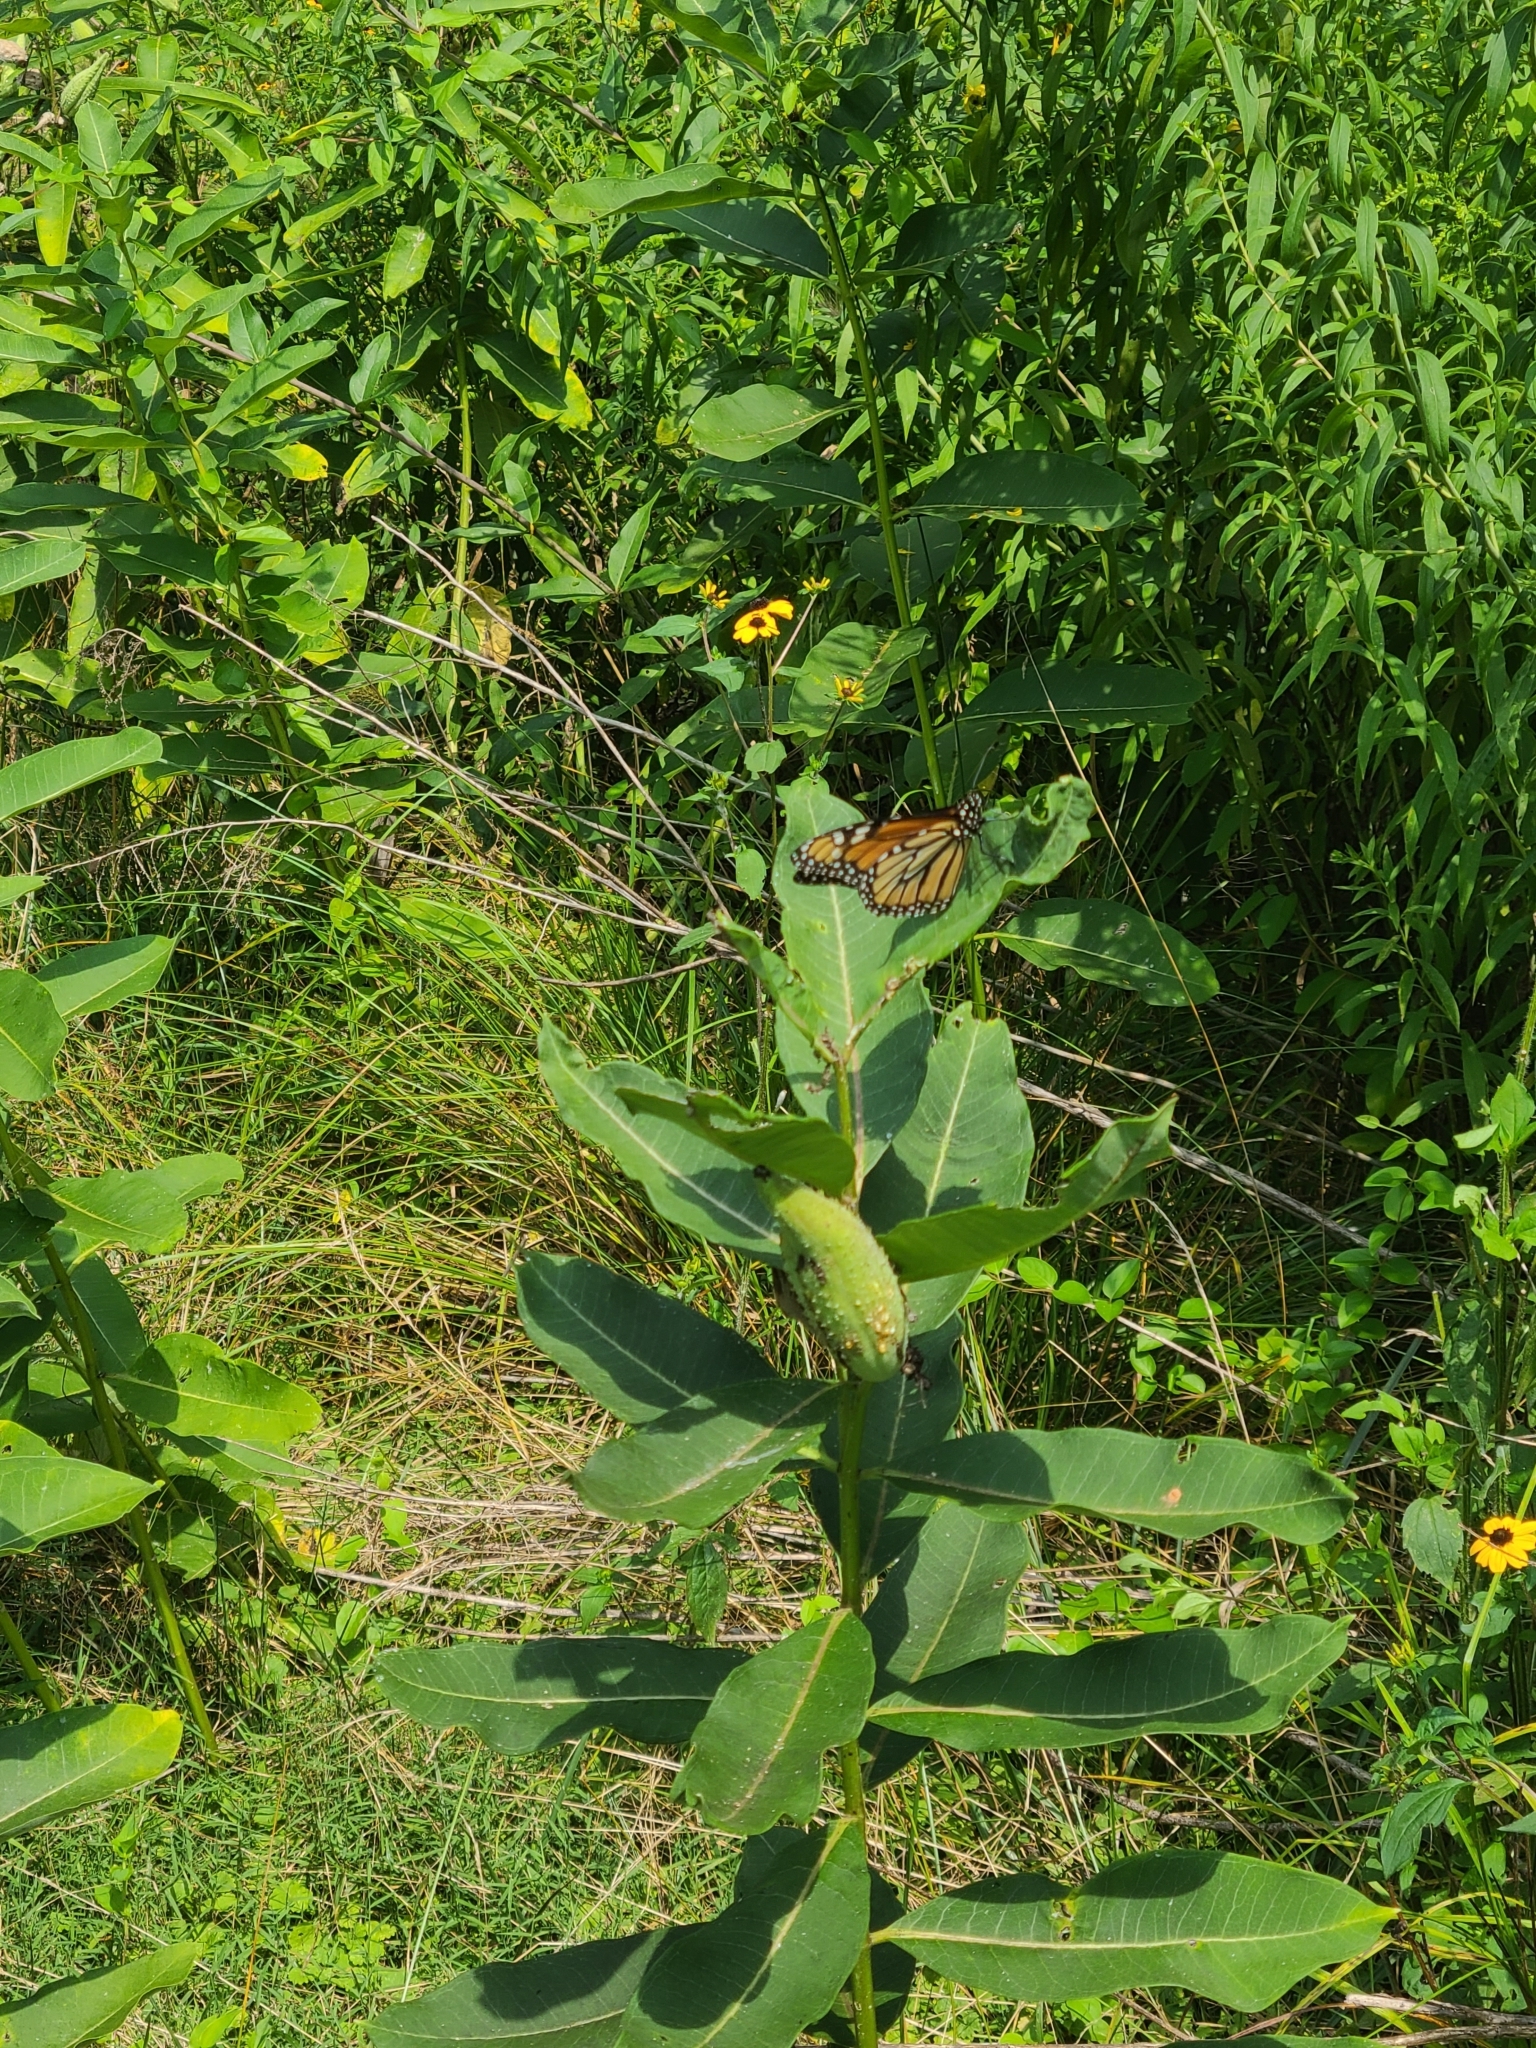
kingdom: Animalia
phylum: Arthropoda
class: Insecta
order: Lepidoptera
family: Nymphalidae
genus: Danaus
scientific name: Danaus plexippus
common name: Monarch
